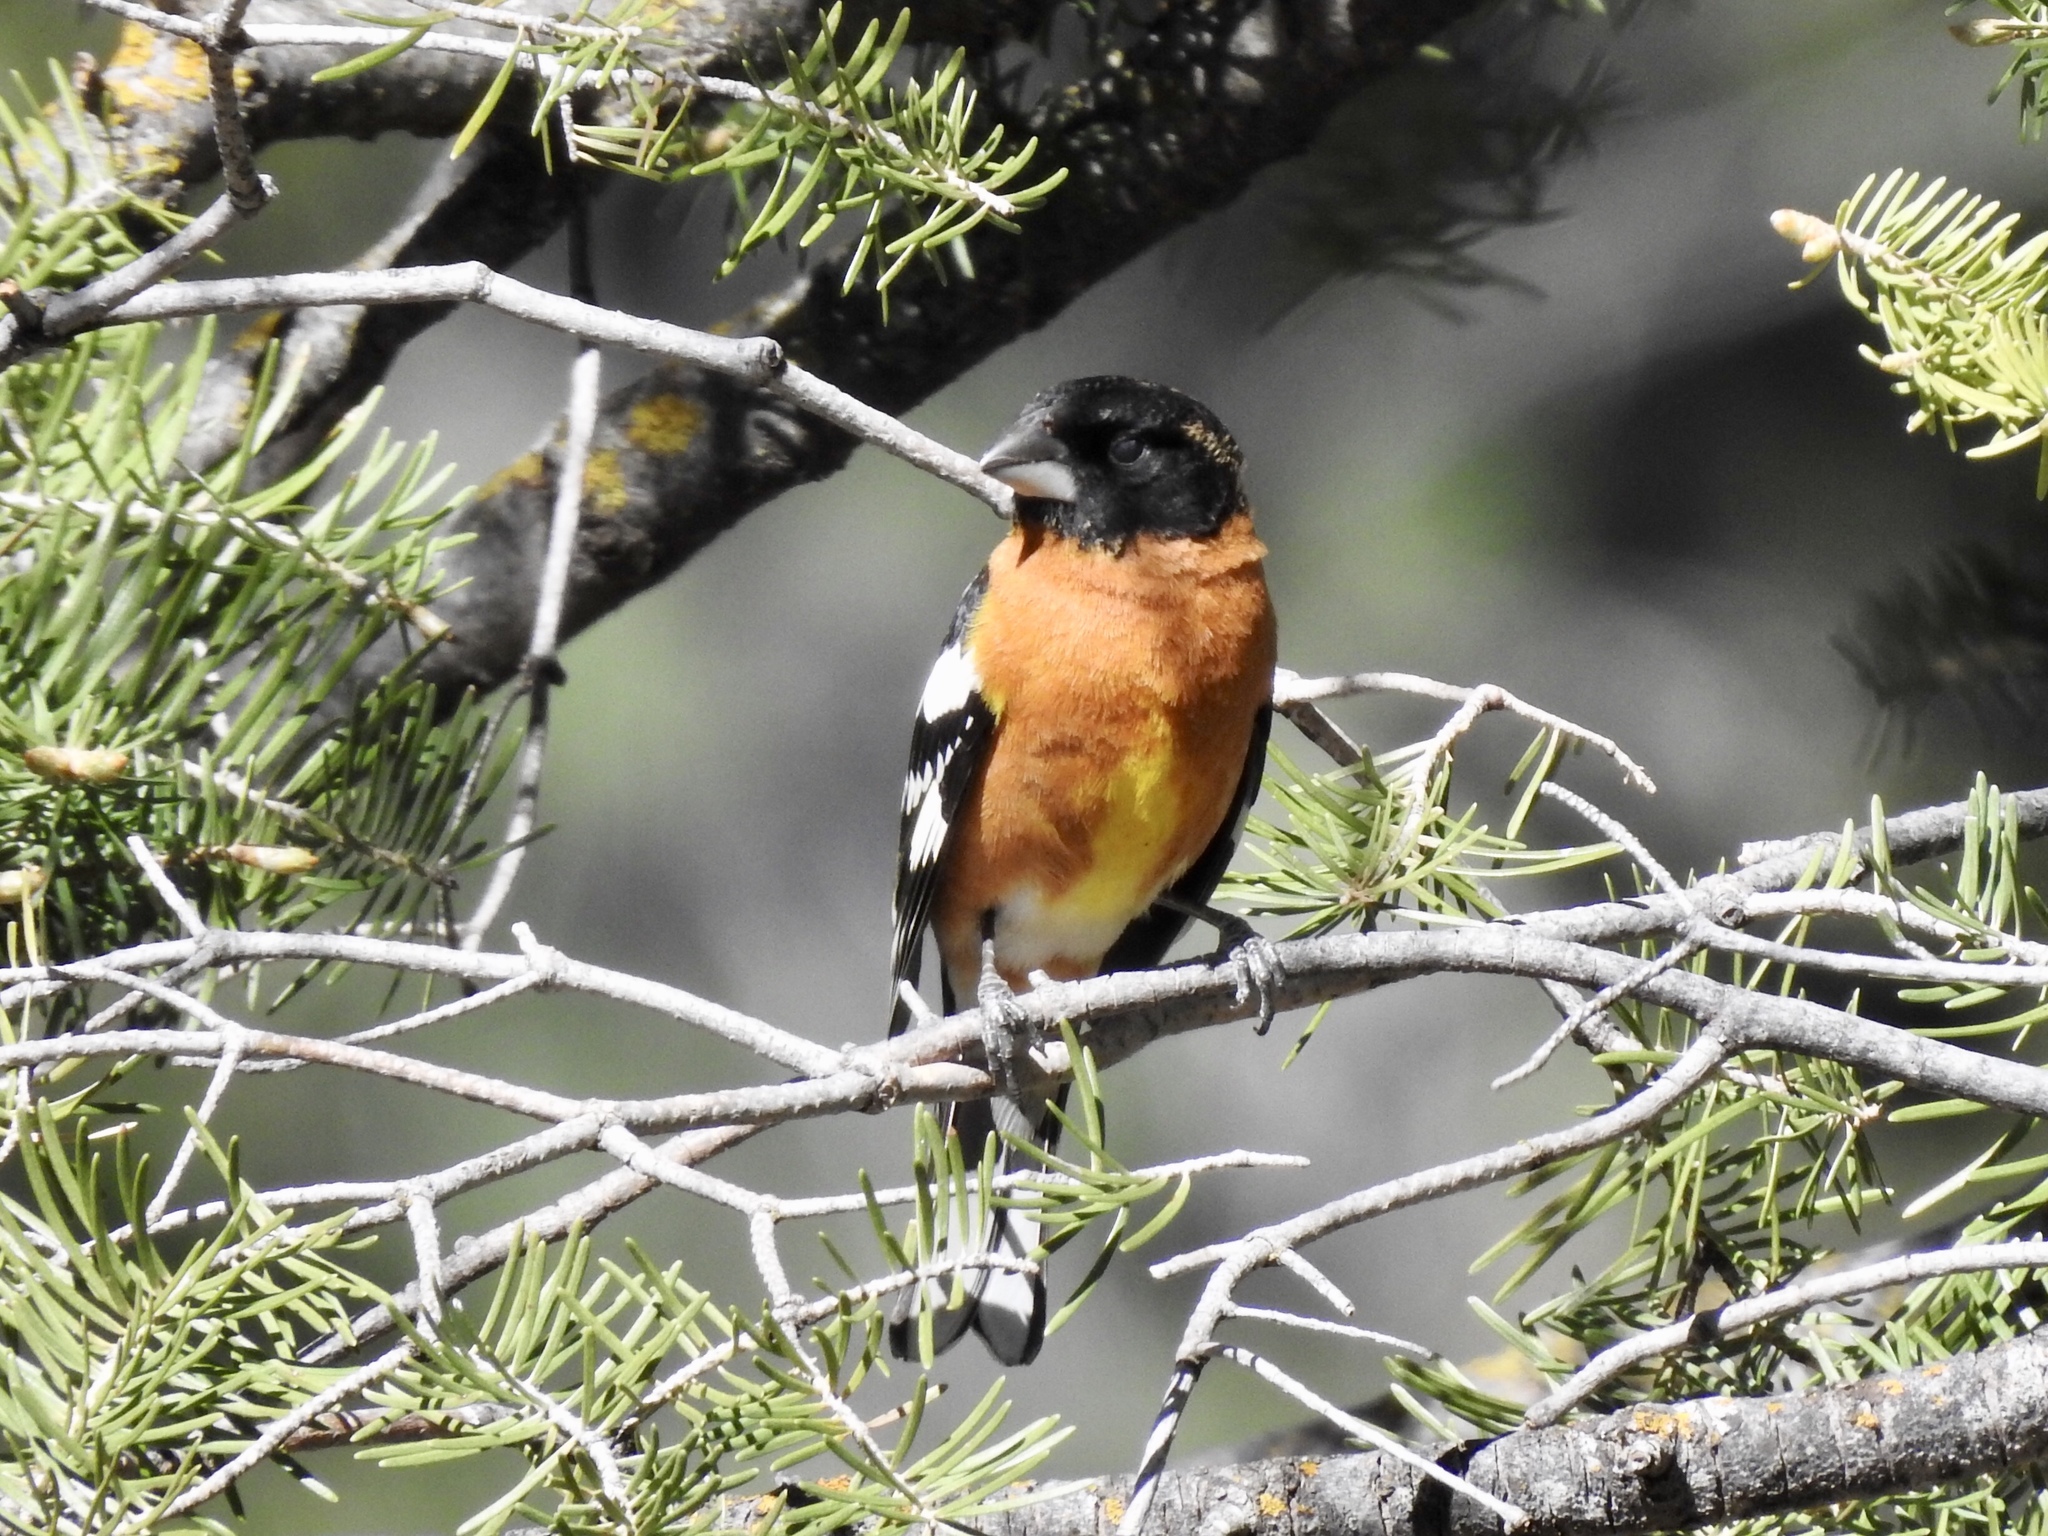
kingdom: Animalia
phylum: Chordata
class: Aves
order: Passeriformes
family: Cardinalidae
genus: Pheucticus
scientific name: Pheucticus melanocephalus
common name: Black-headed grosbeak
